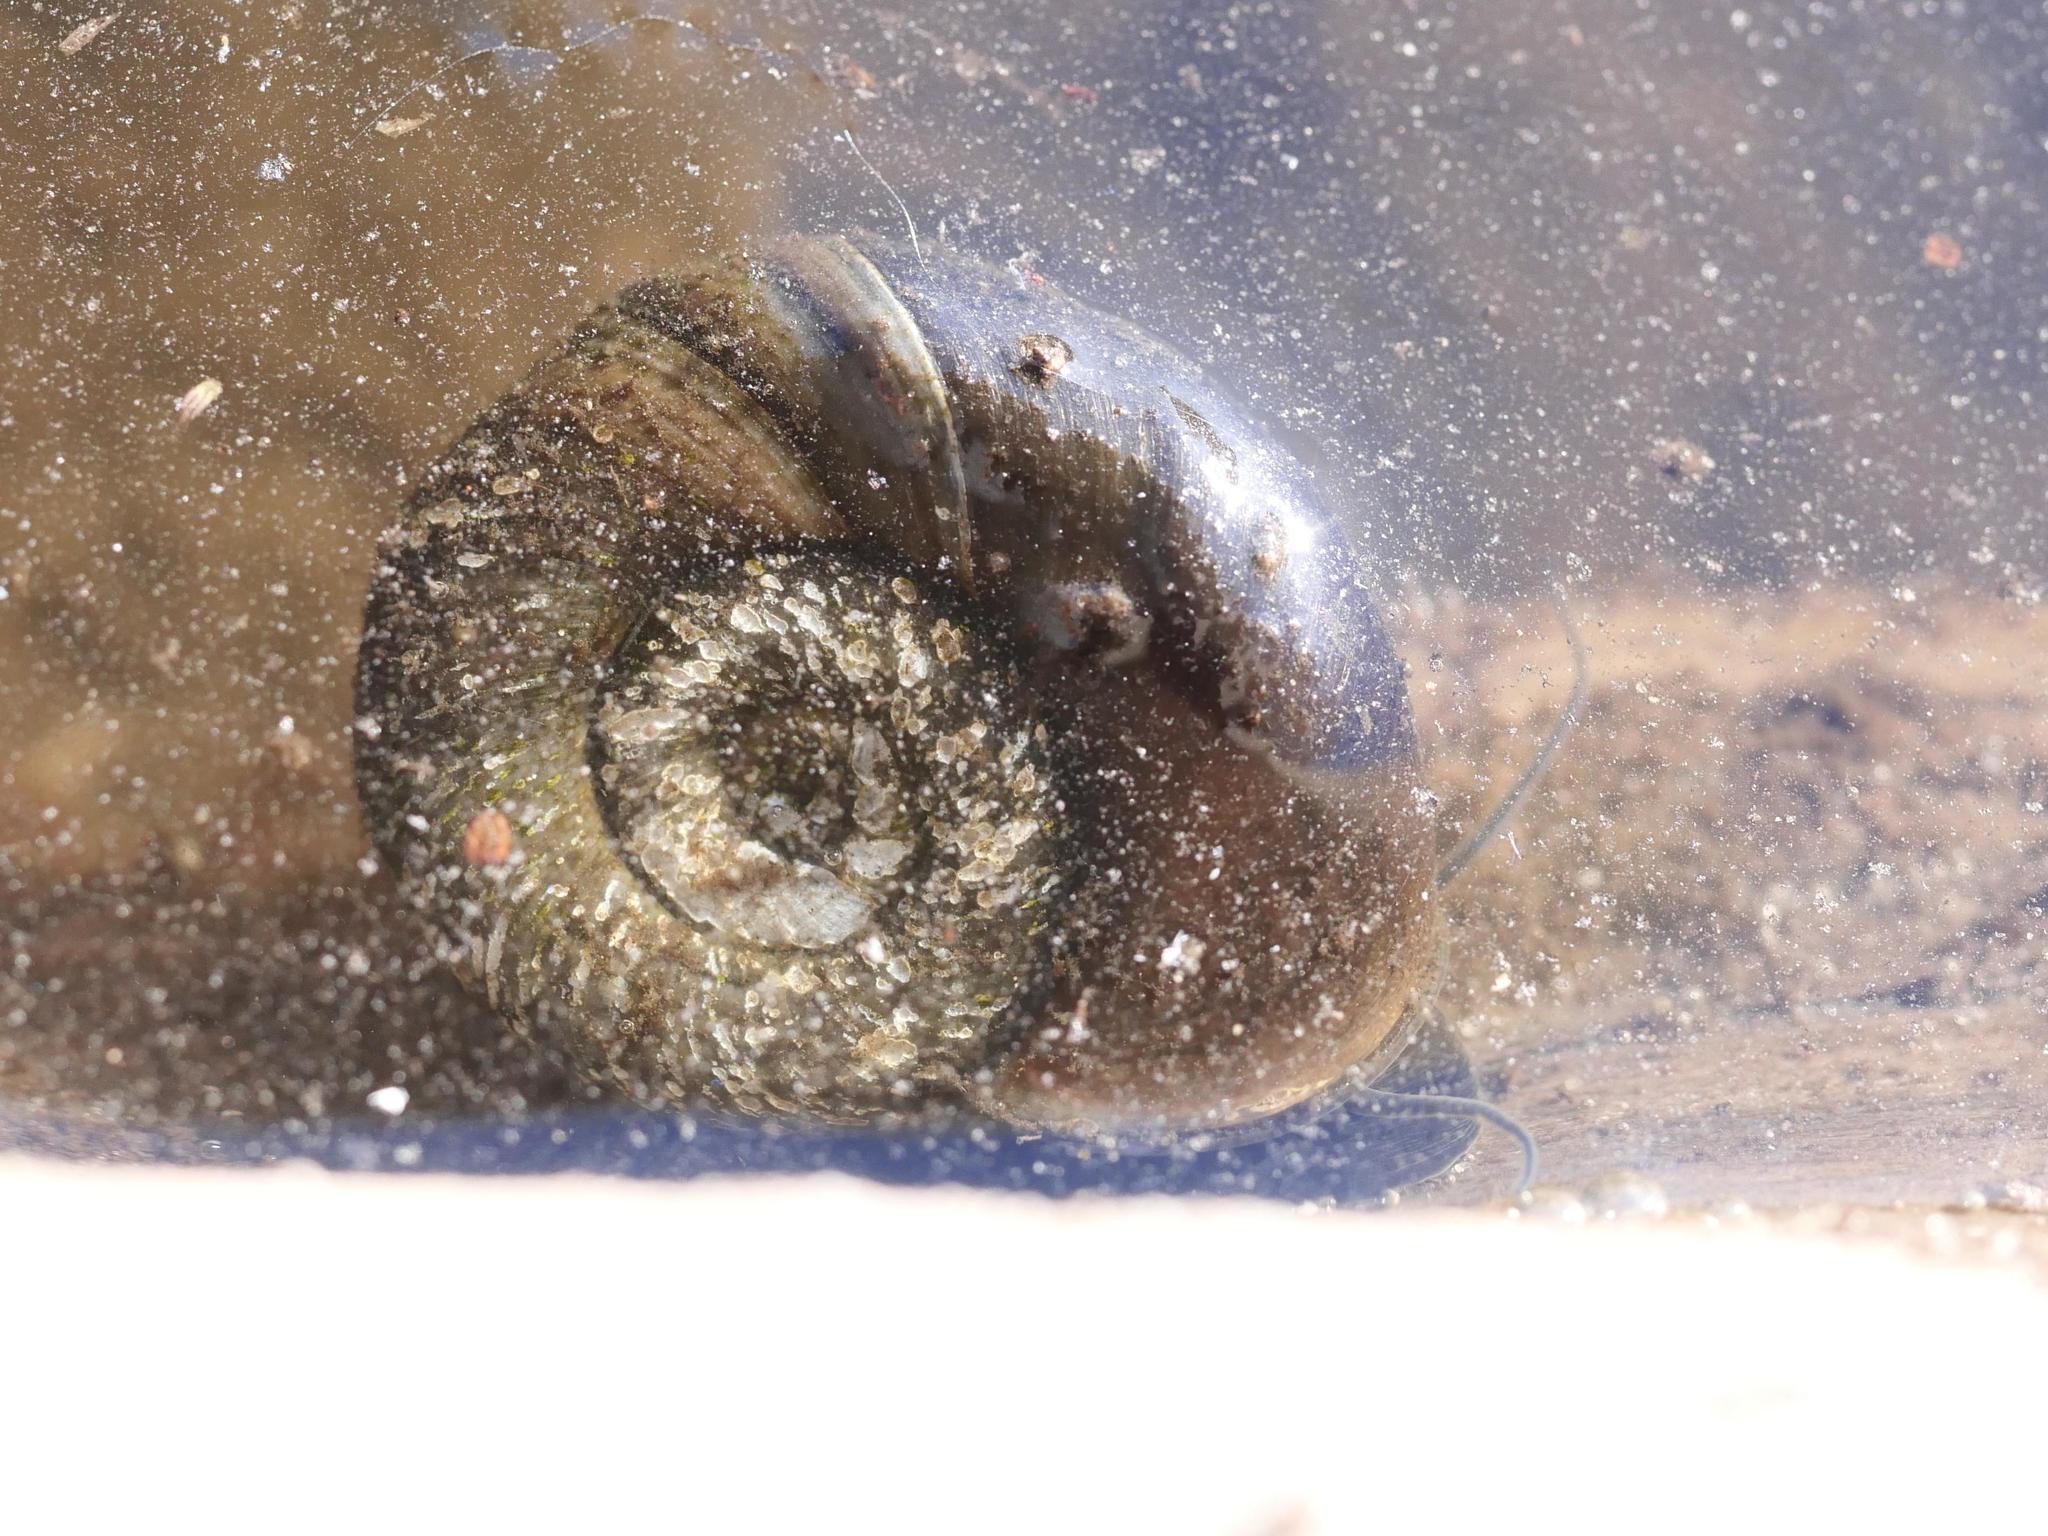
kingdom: Animalia
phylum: Mollusca
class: Gastropoda
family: Planorbidae
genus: Planorbarius
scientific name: Planorbarius corneus
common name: Great ramshorn
